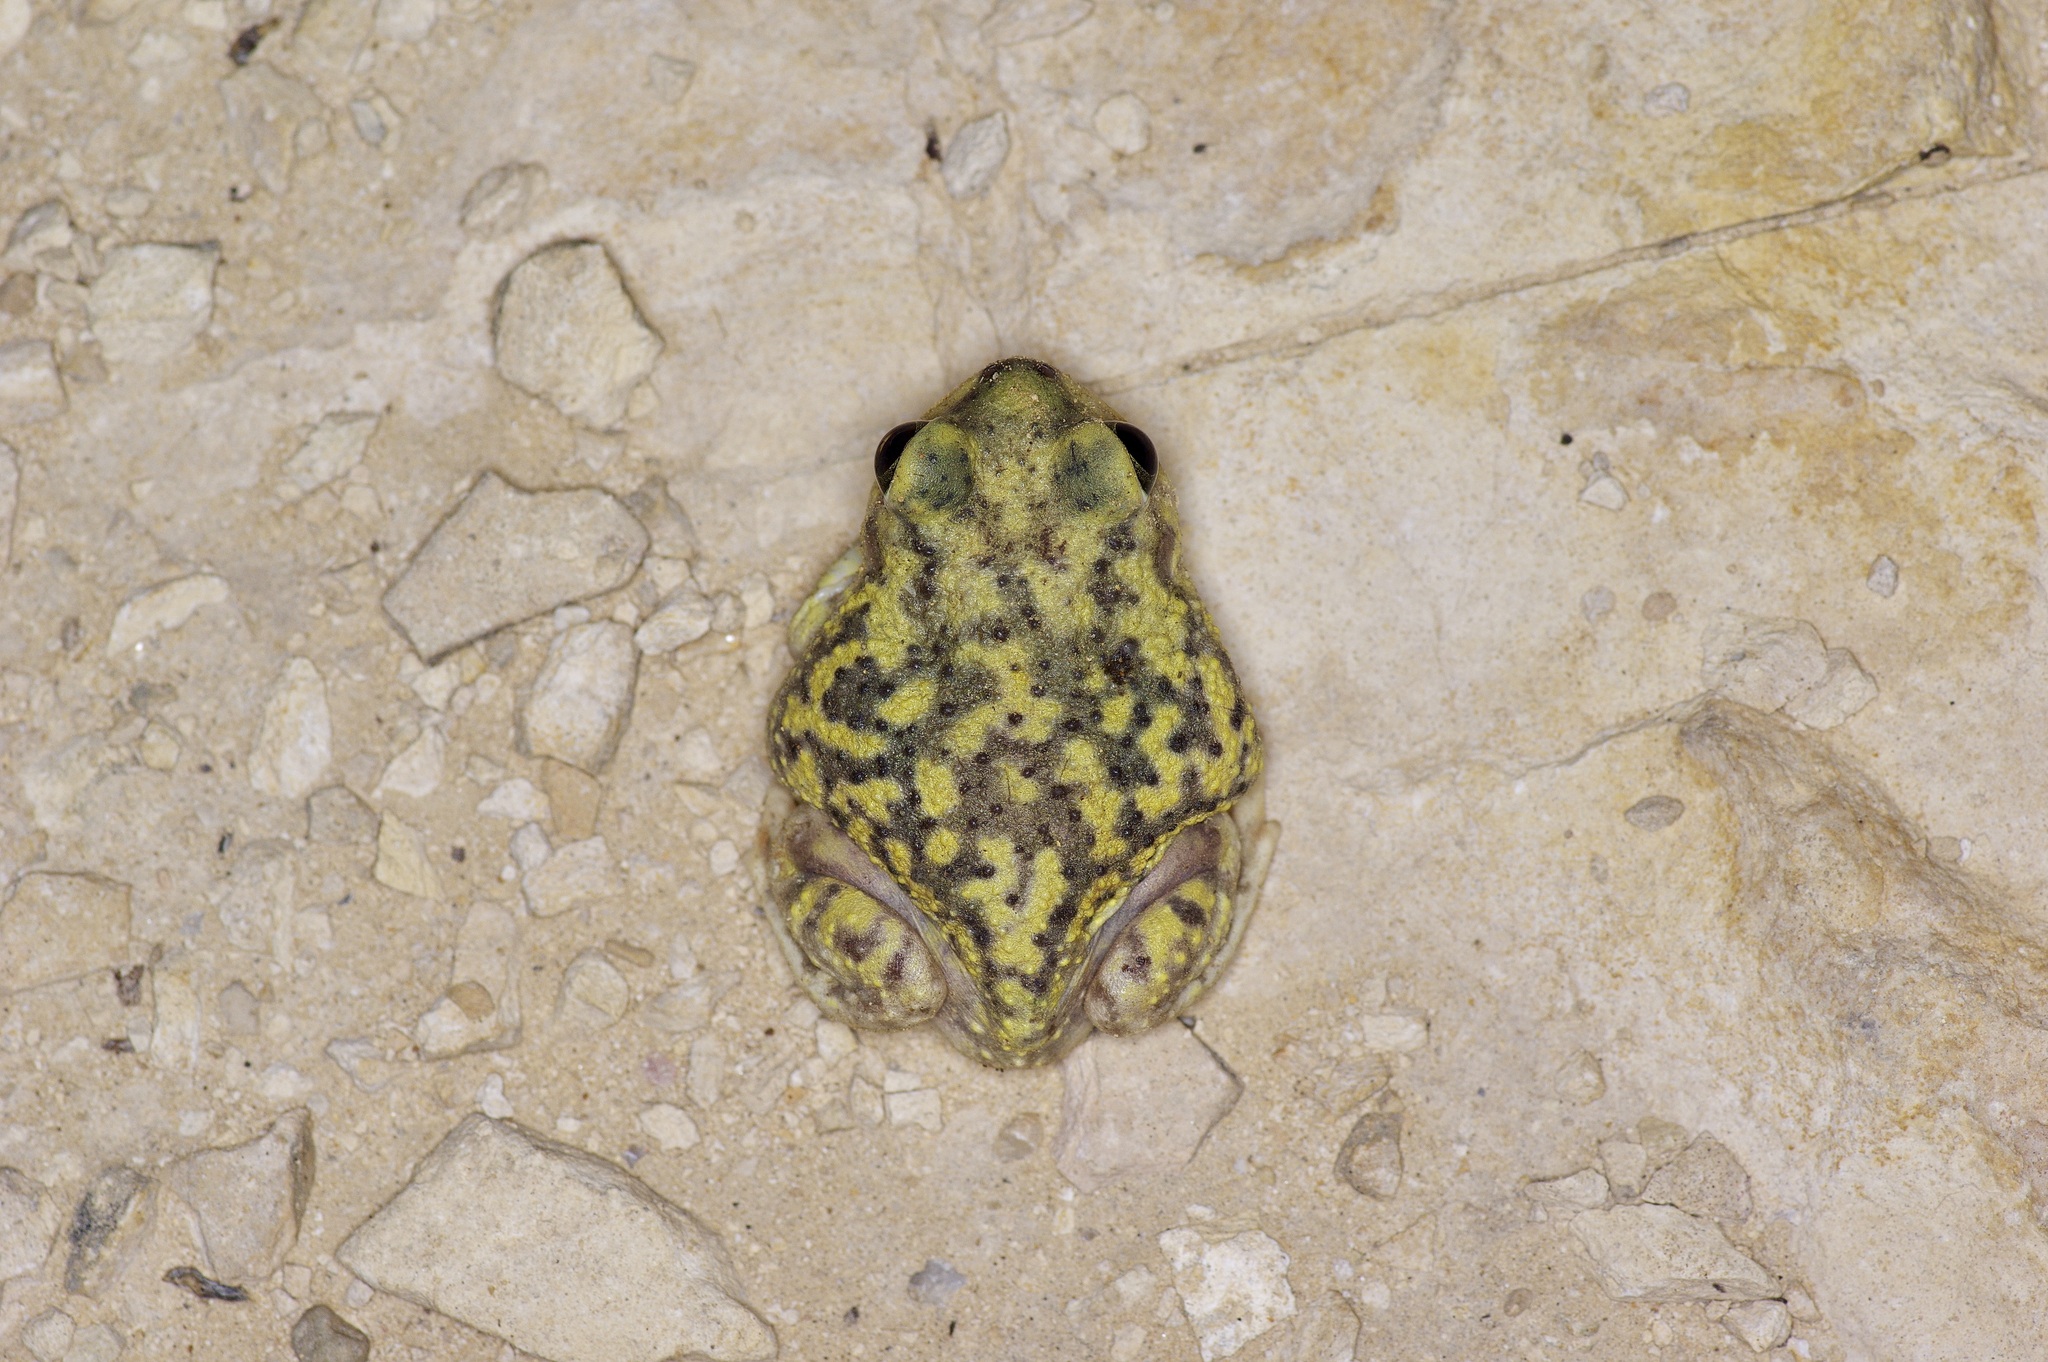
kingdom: Animalia
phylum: Chordata
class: Amphibia
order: Anura
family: Scaphiopodidae
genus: Scaphiopus
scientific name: Scaphiopus couchii
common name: Couch's spadefoot toad
